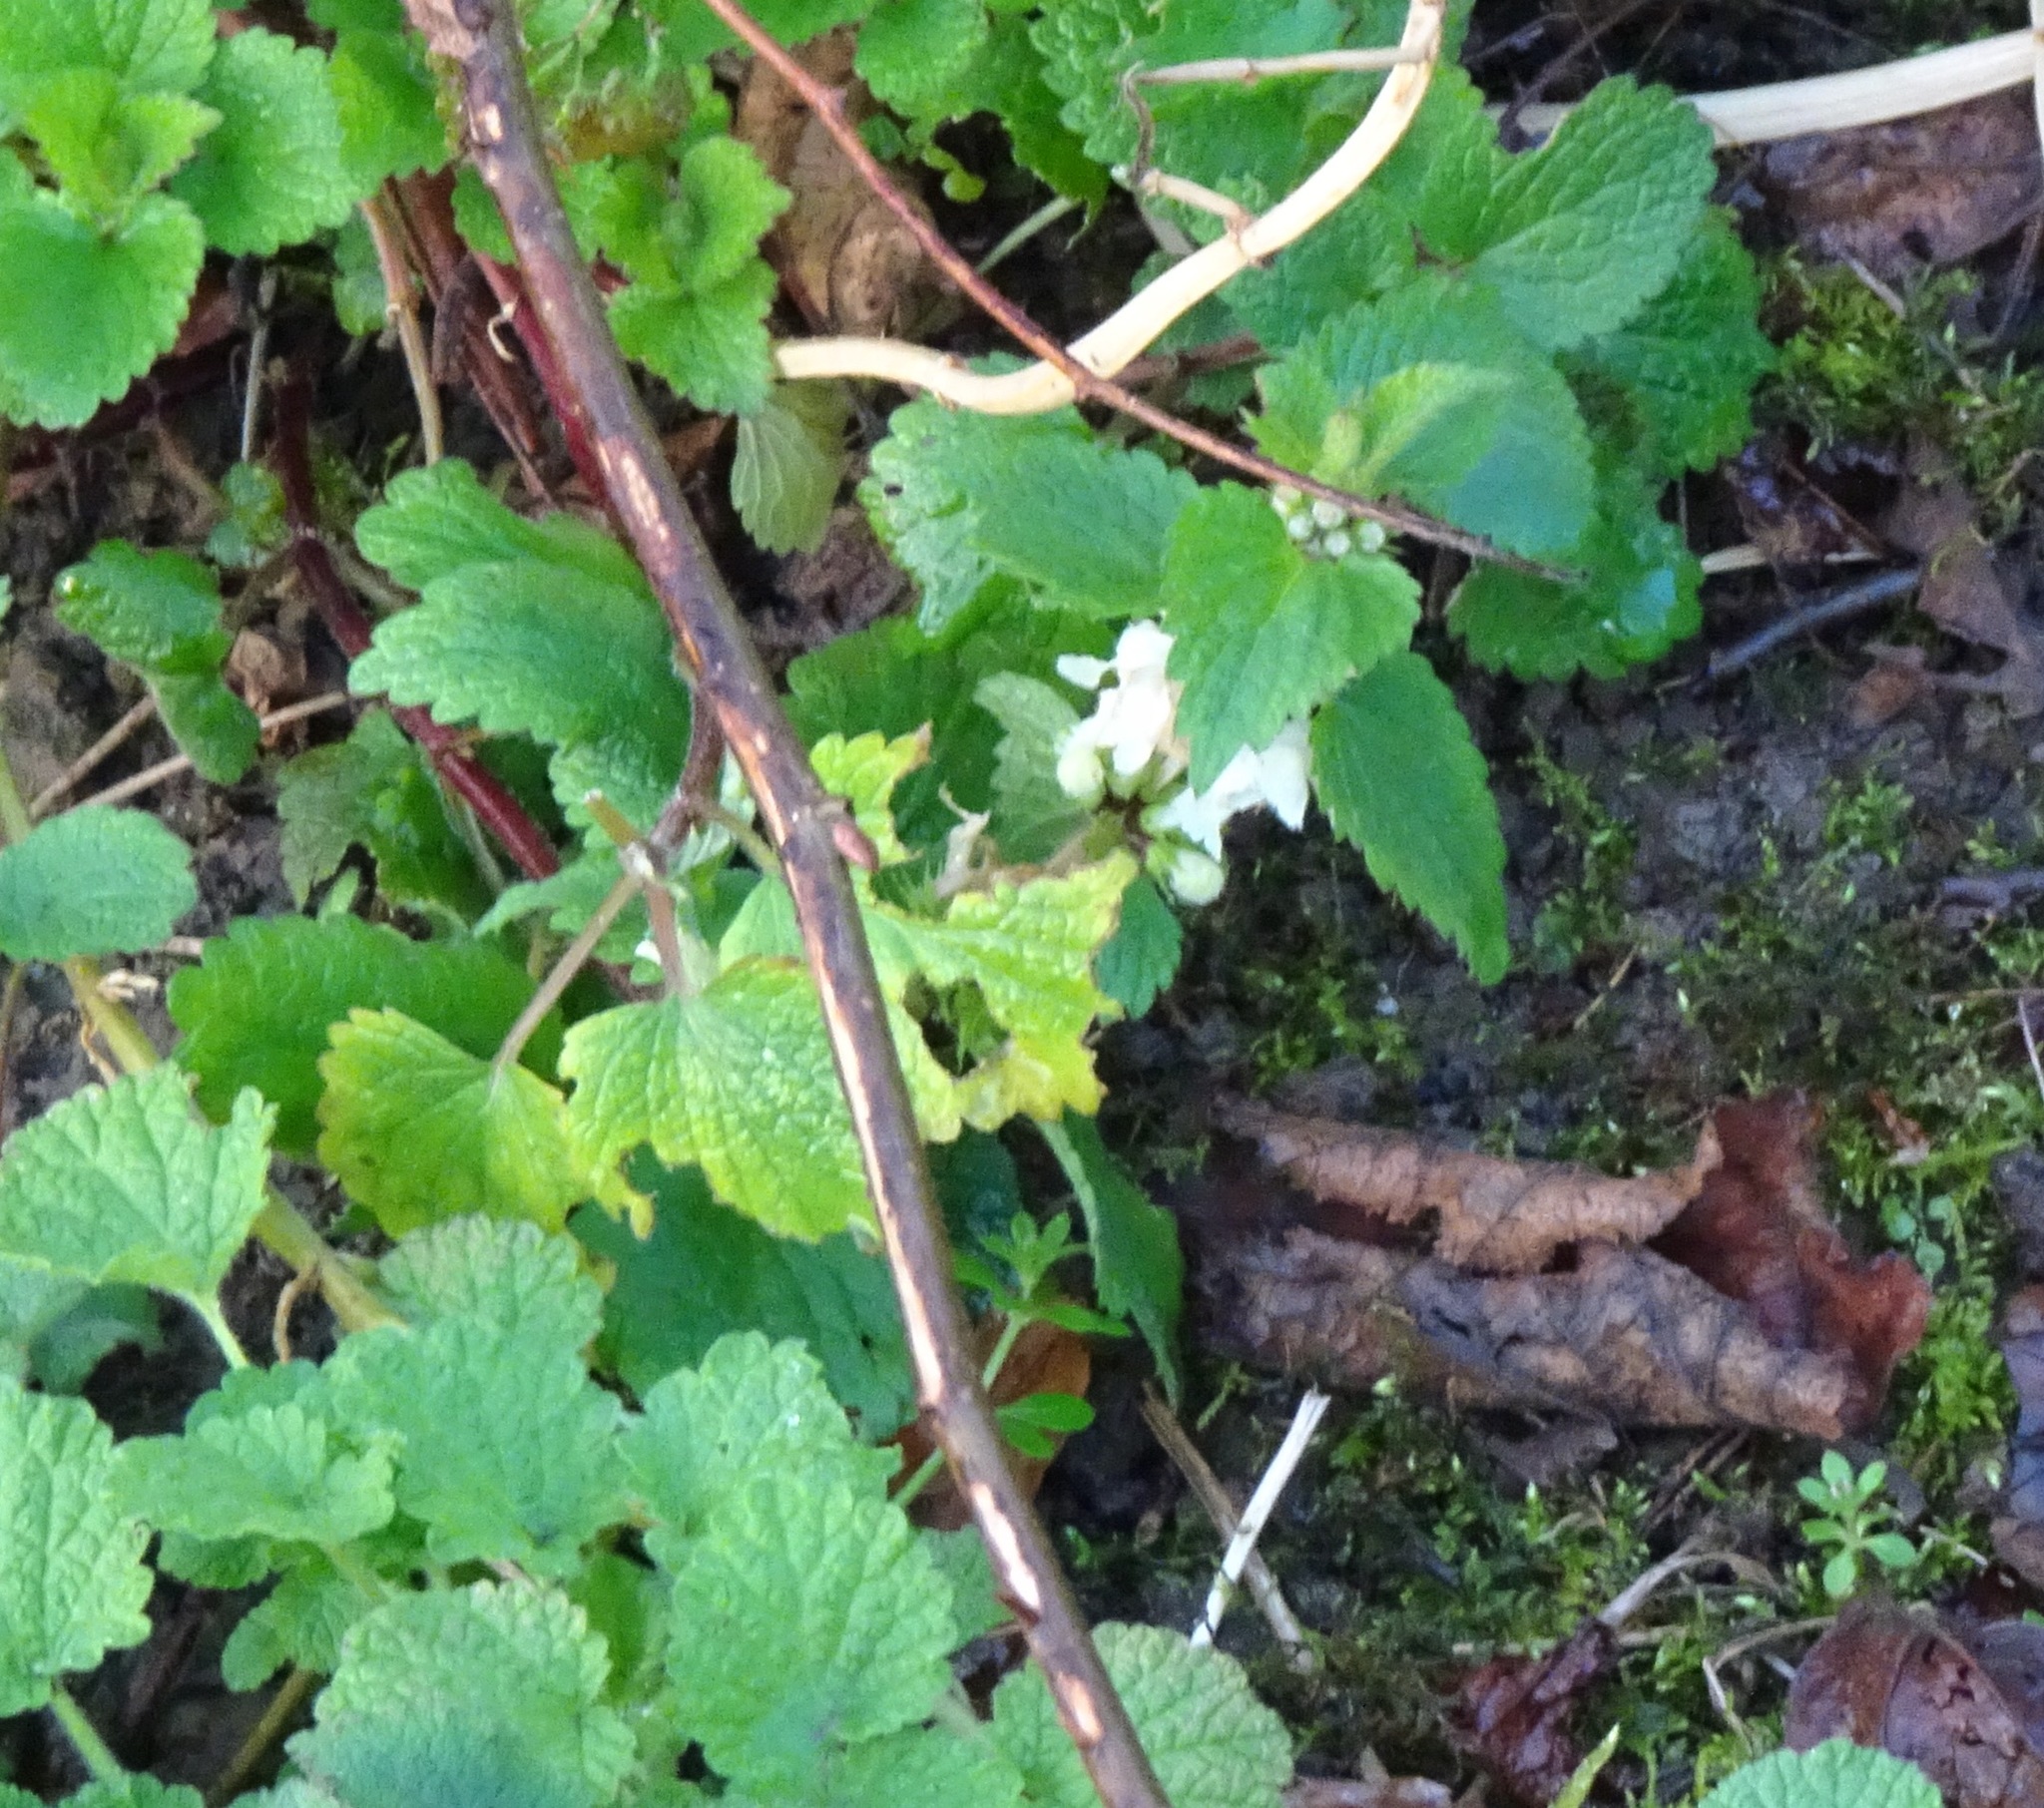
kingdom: Plantae
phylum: Tracheophyta
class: Magnoliopsida
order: Lamiales
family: Lamiaceae
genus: Lamium
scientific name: Lamium album
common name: White dead-nettle
